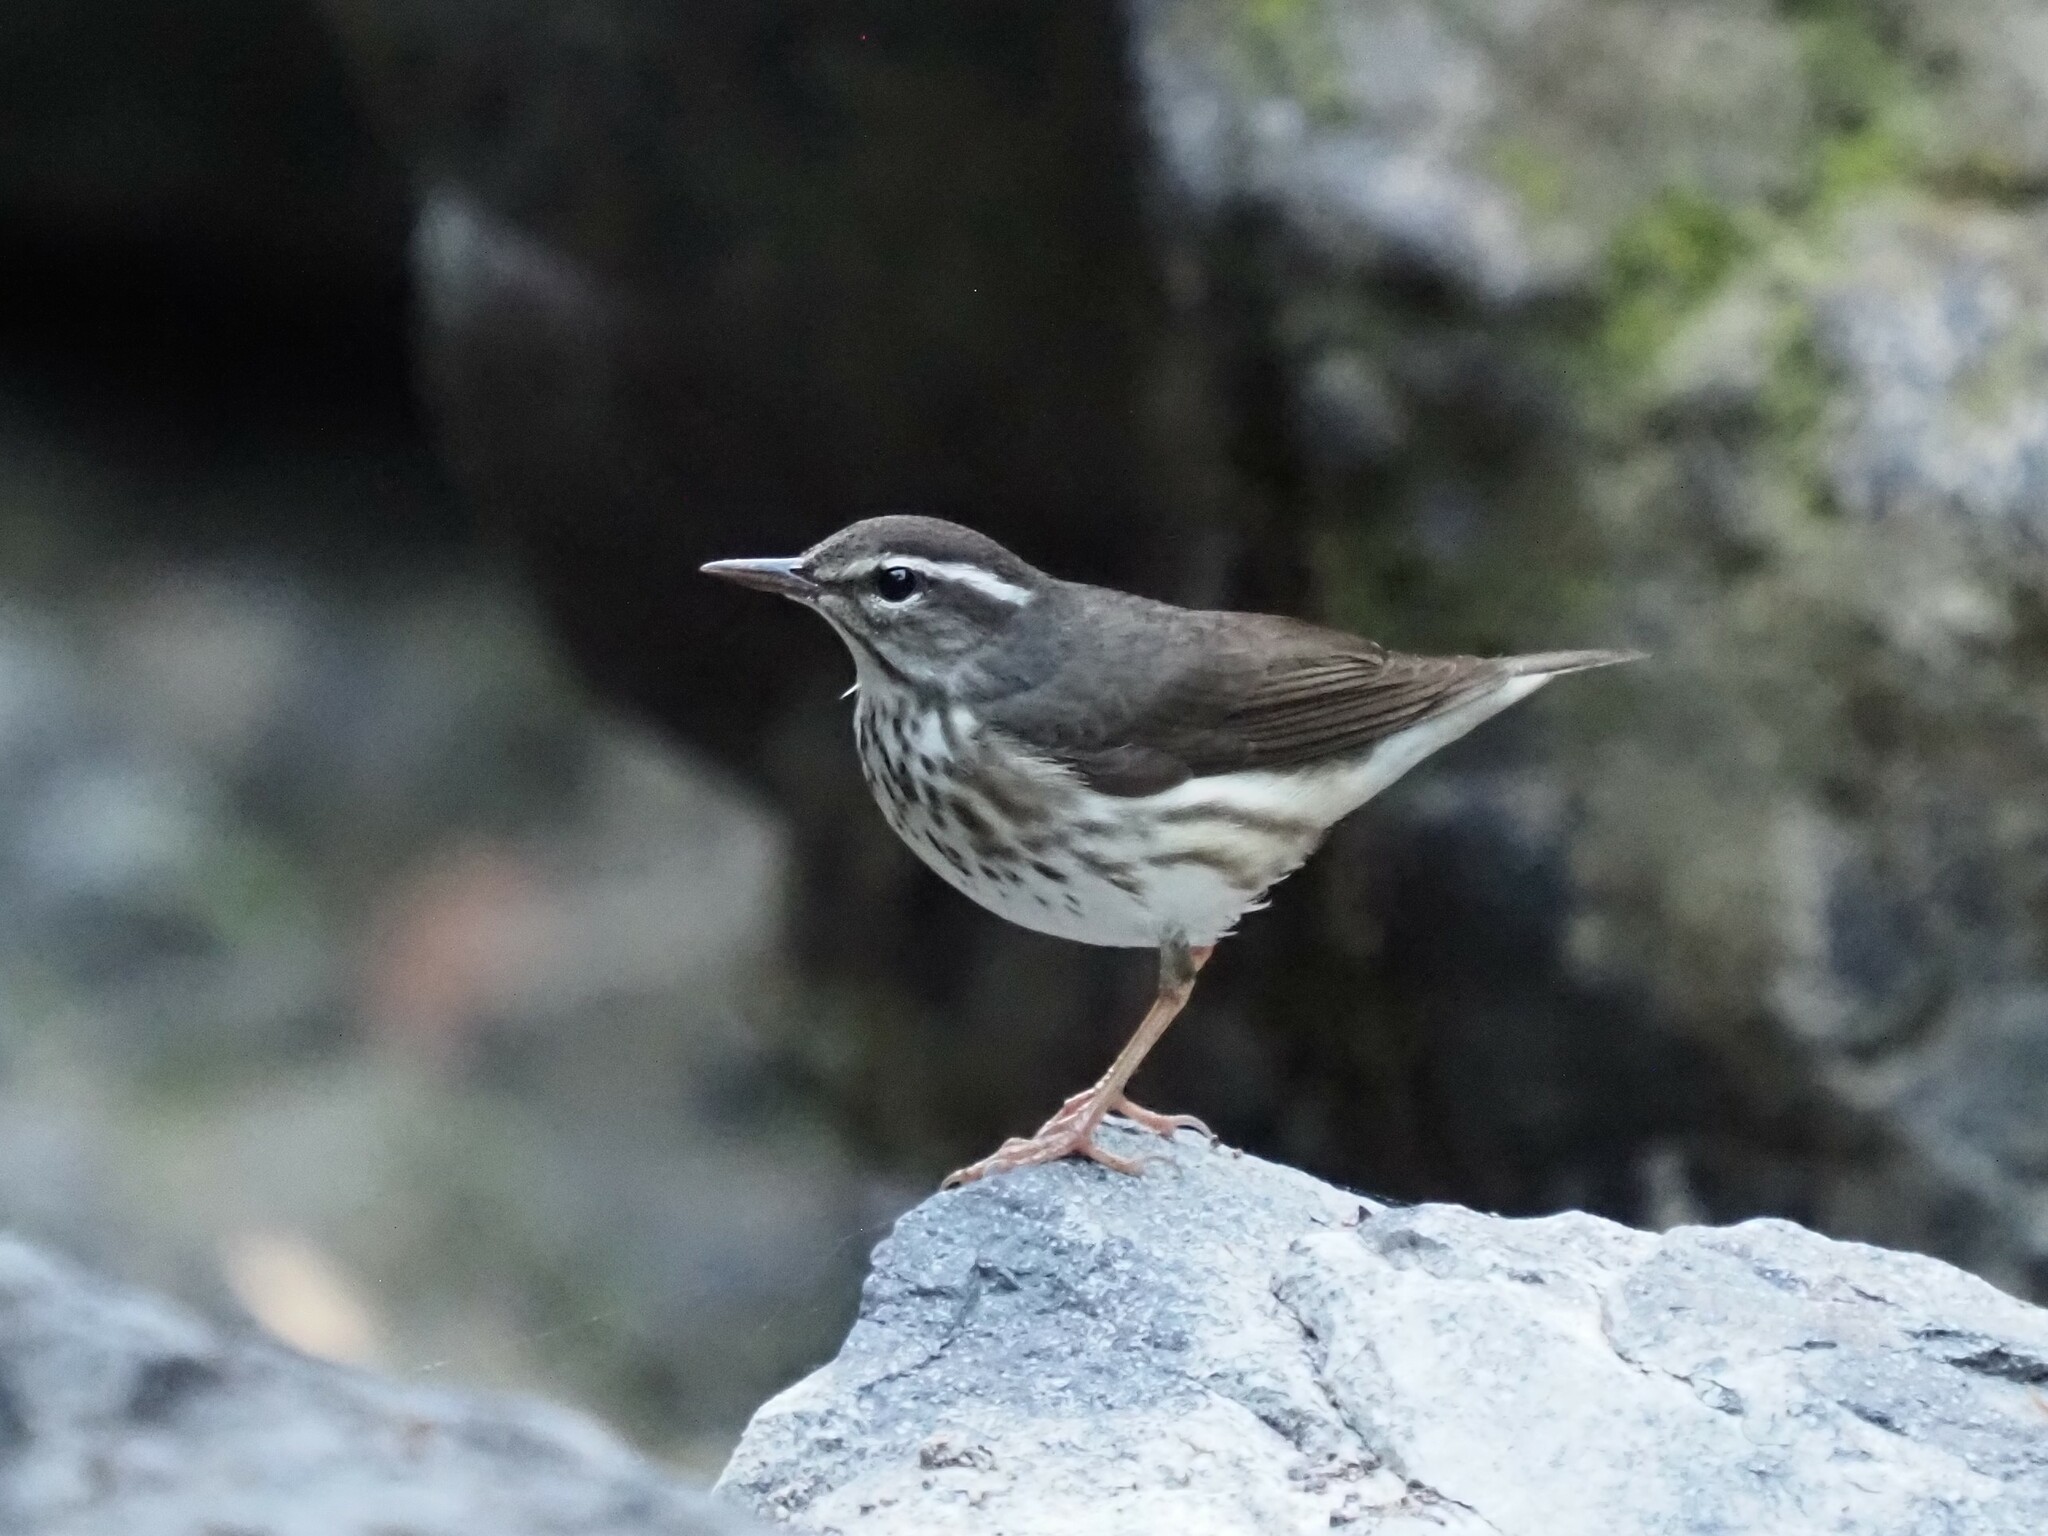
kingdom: Animalia
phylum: Chordata
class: Aves
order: Passeriformes
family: Parulidae
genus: Parkesia
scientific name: Parkesia motacilla
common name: Louisiana waterthrush
